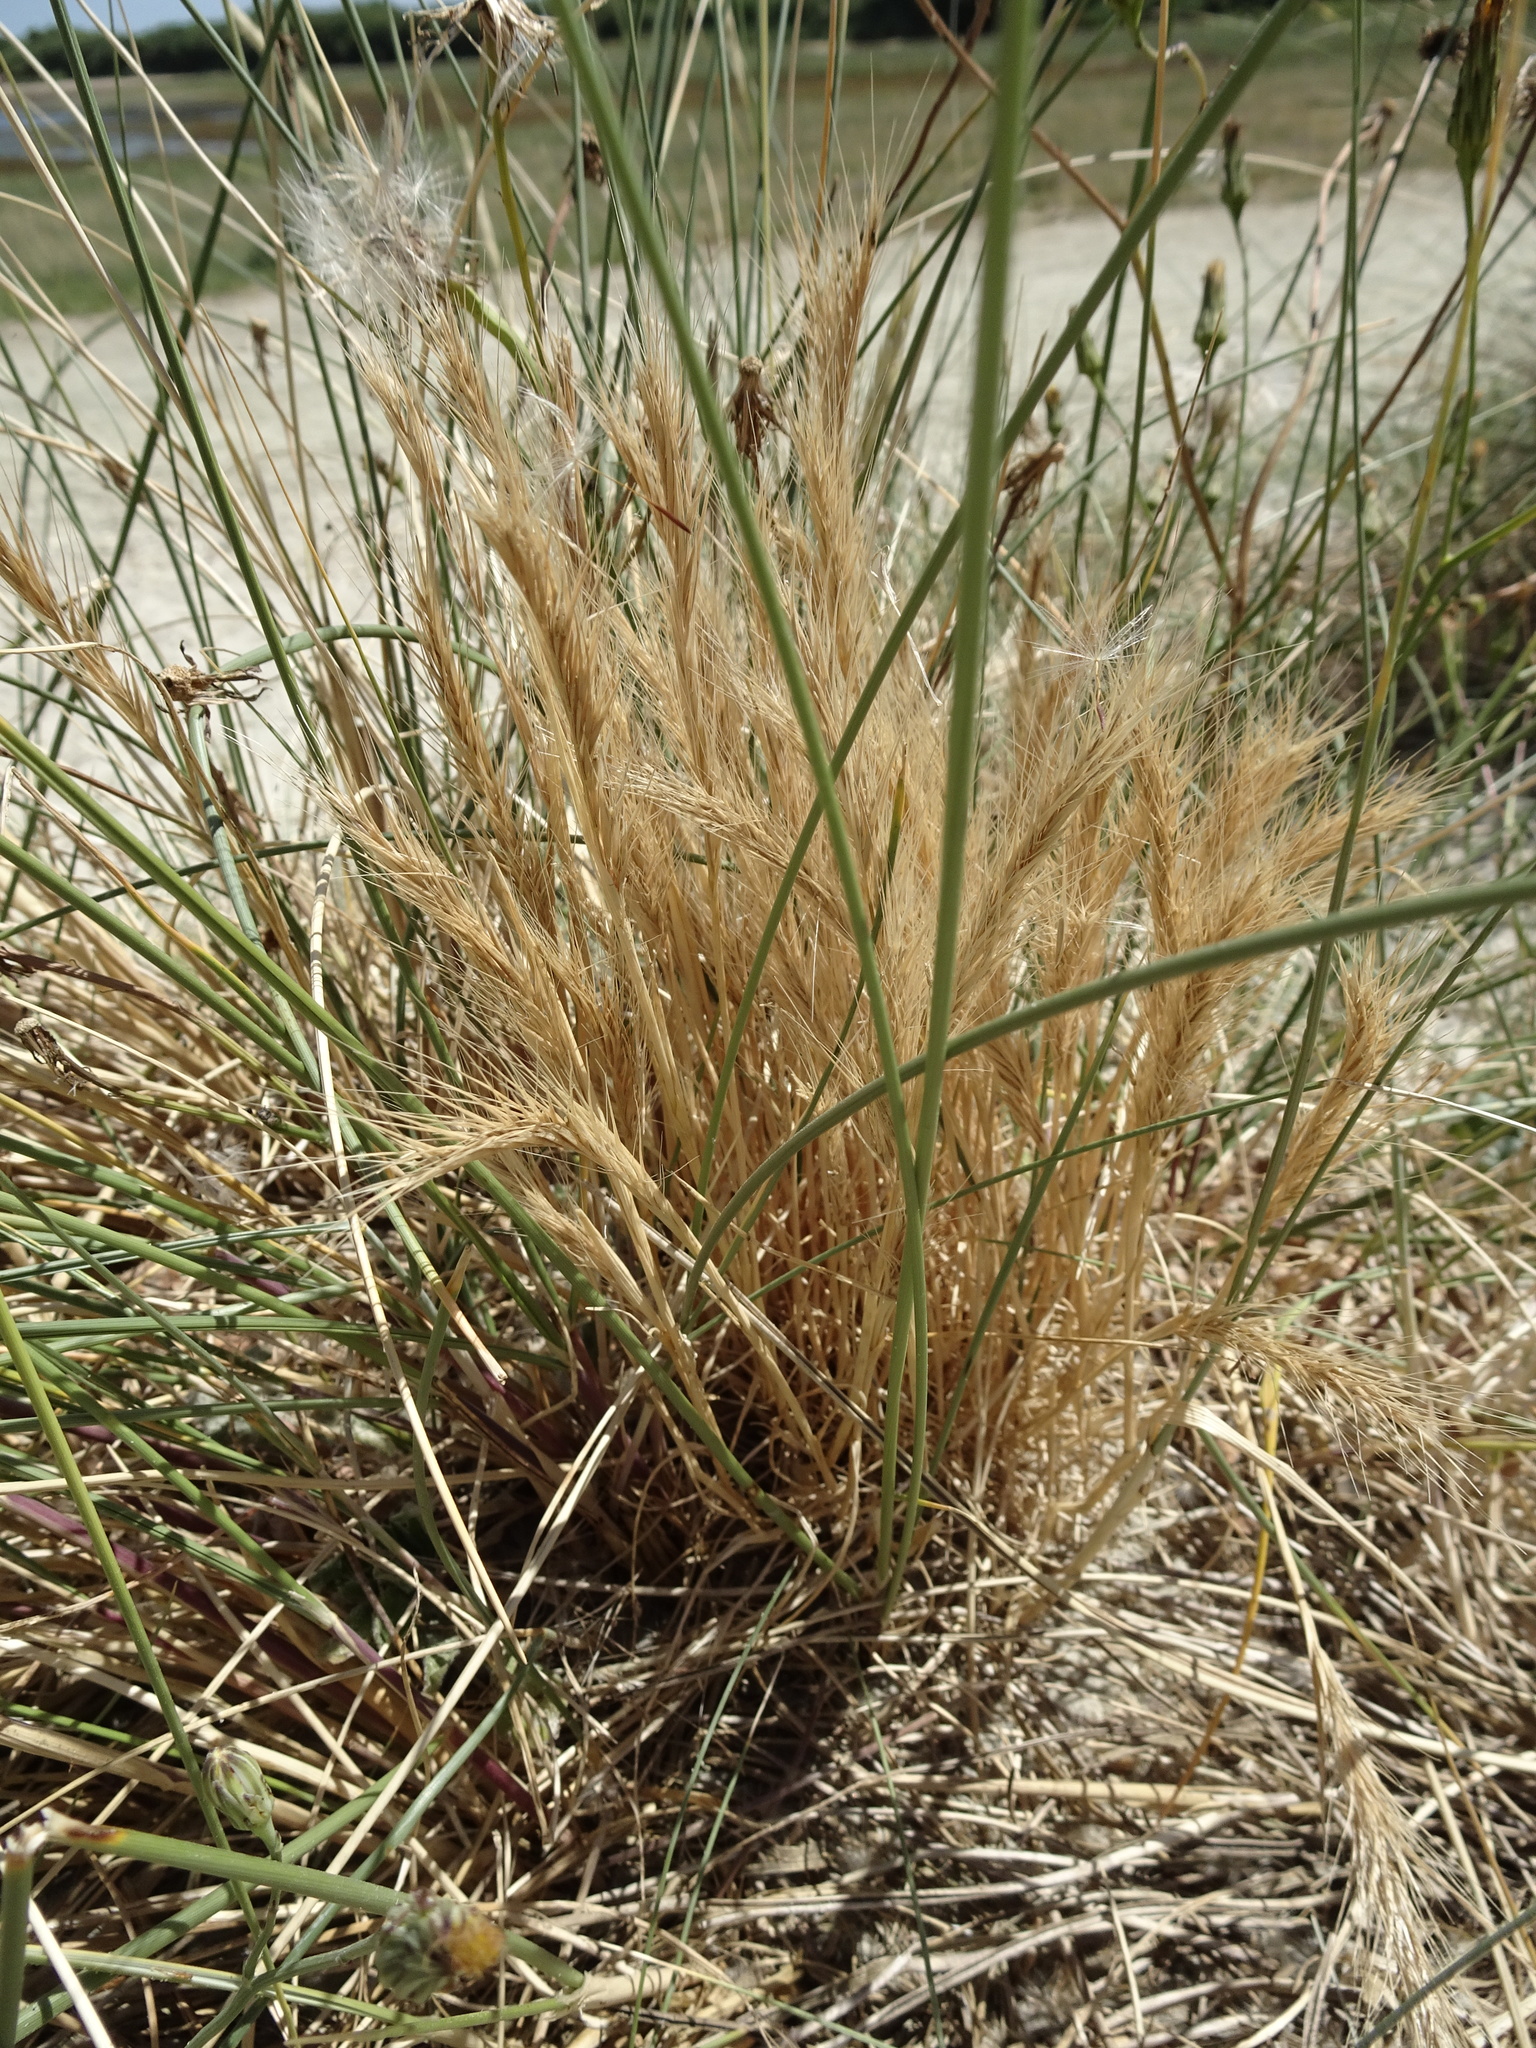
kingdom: Plantae
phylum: Tracheophyta
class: Liliopsida
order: Poales
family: Poaceae
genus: Festuca
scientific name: Festuca fasciculata
